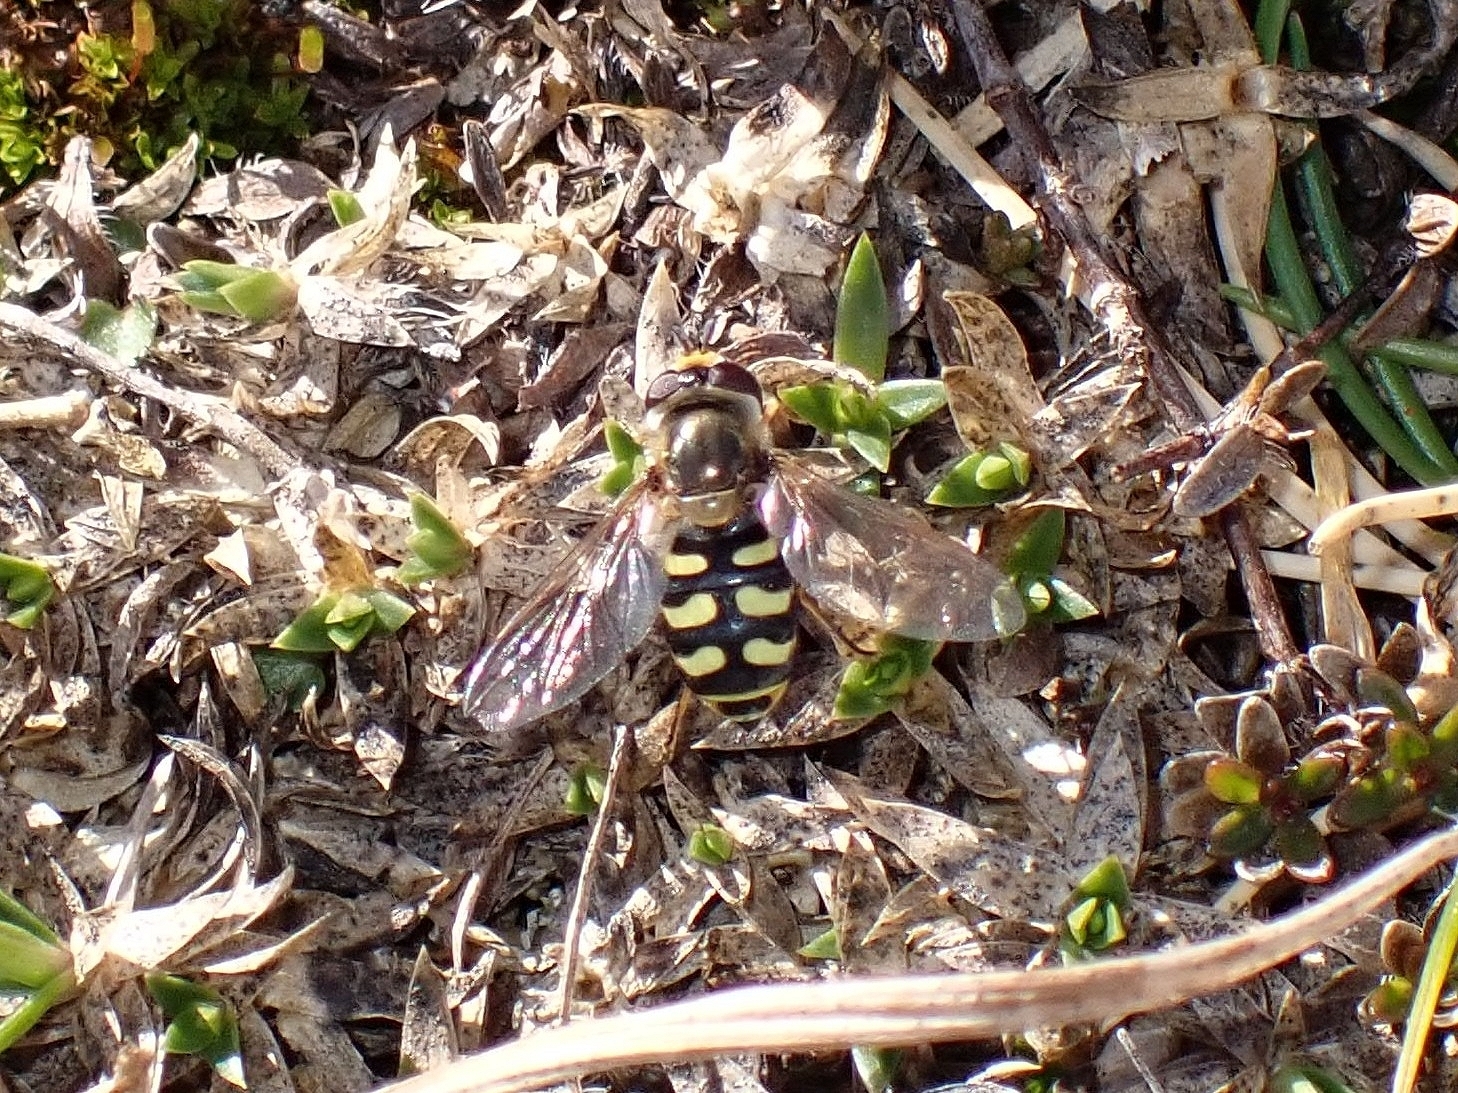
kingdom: Animalia
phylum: Arthropoda
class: Insecta
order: Diptera
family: Syrphidae
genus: Eupeodes
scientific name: Eupeodes corollae
